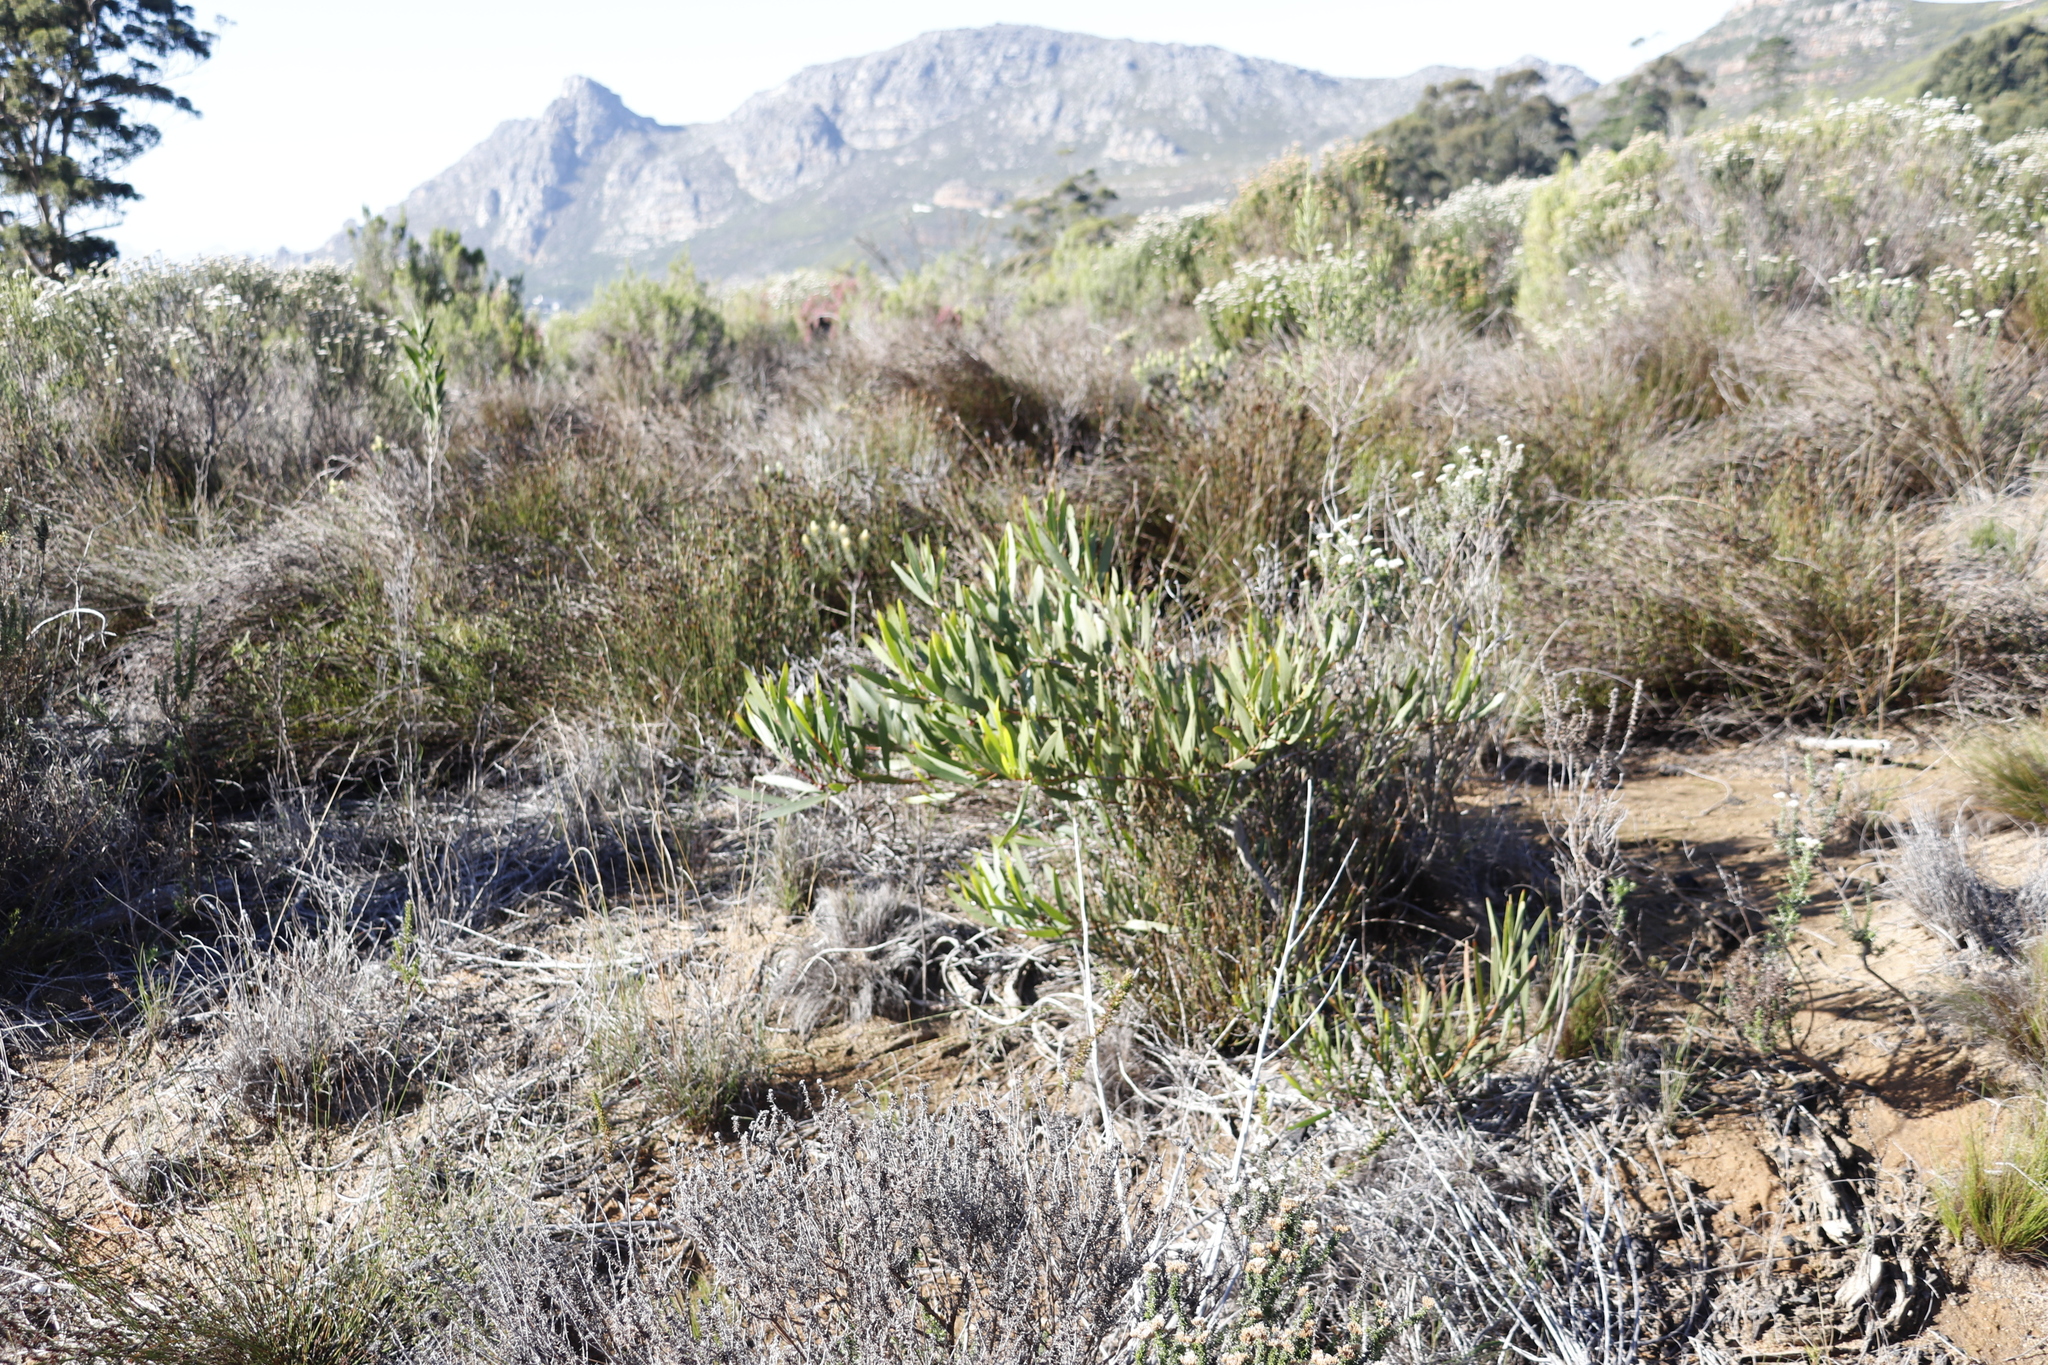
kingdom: Plantae
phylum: Tracheophyta
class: Magnoliopsida
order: Fabales
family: Fabaceae
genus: Acacia
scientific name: Acacia longifolia
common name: Sydney golden wattle
